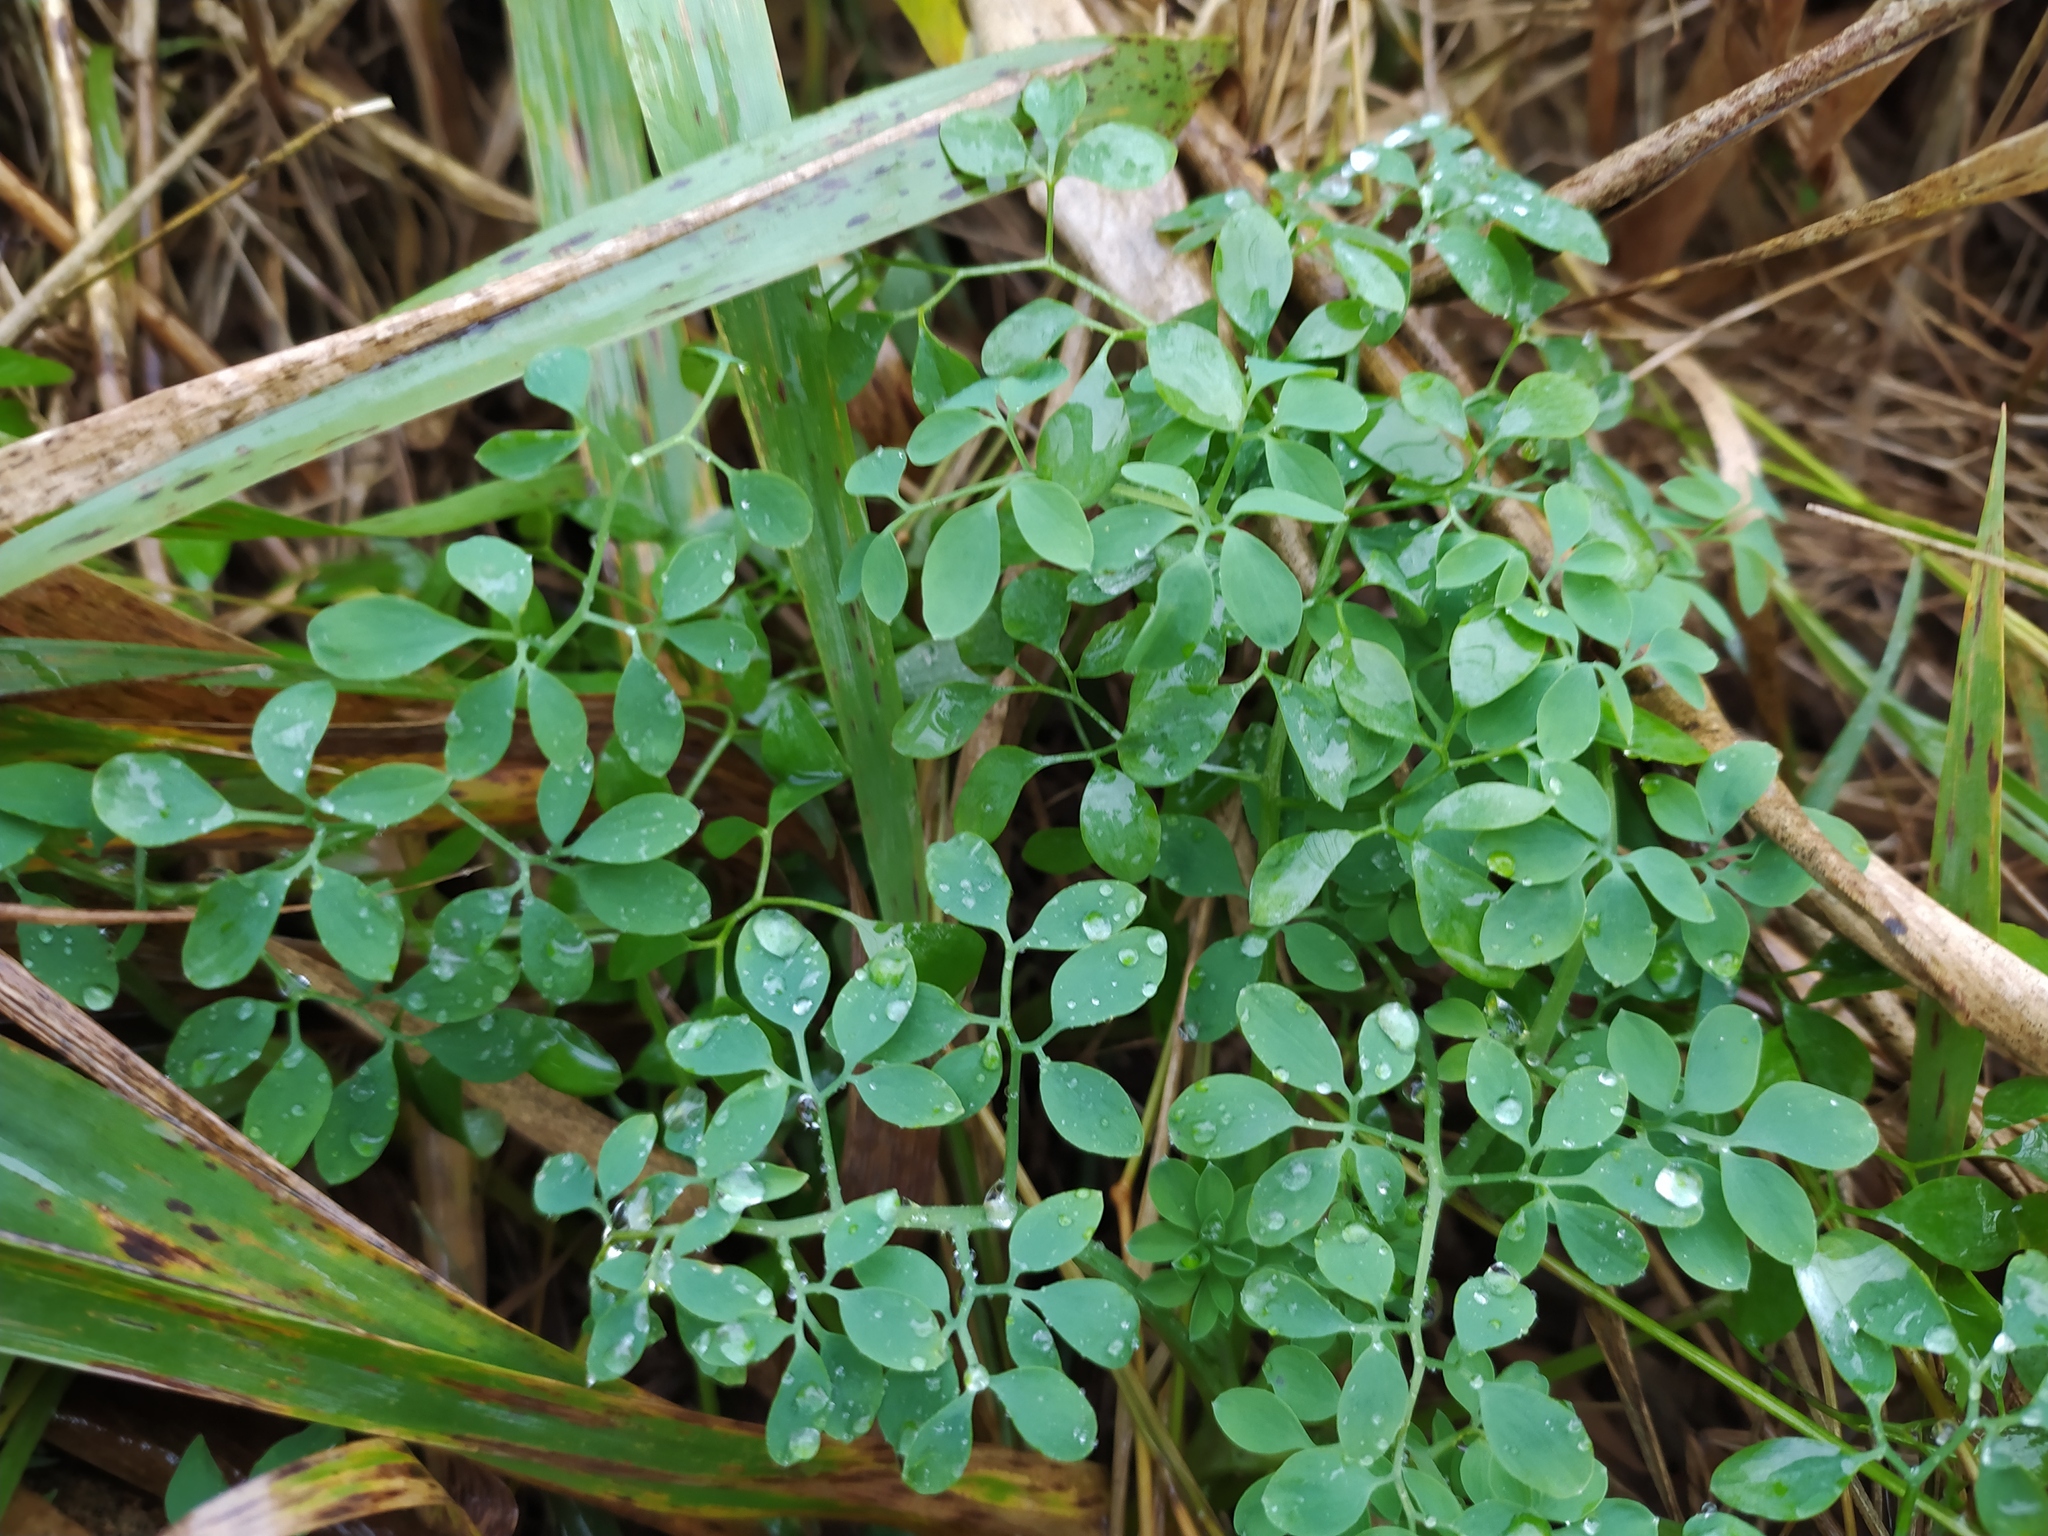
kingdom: Plantae
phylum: Tracheophyta
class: Magnoliopsida
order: Ranunculales
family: Papaveraceae
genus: Ceratocapnos
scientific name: Ceratocapnos claviculata
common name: Climbing corydalis
